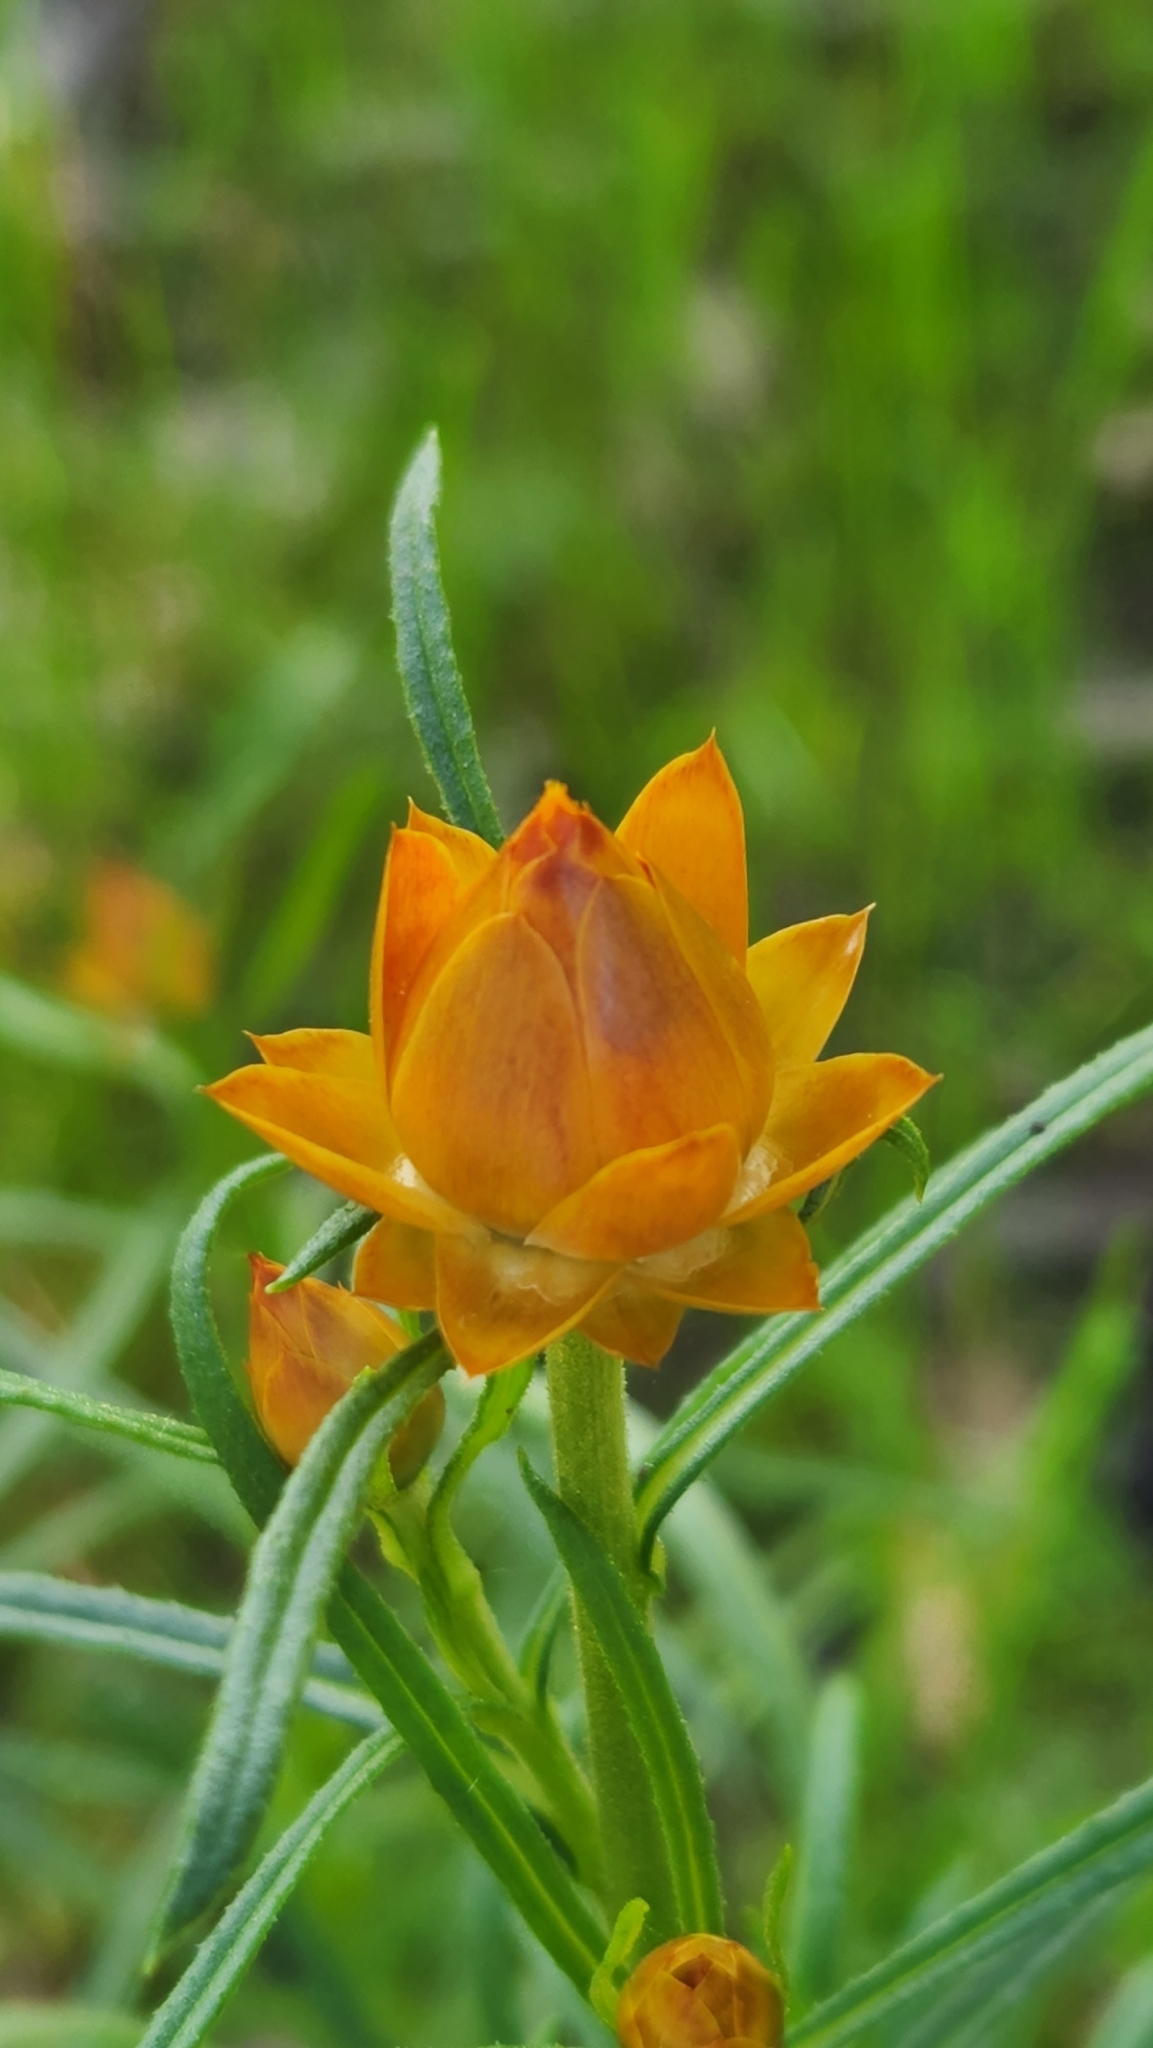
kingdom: Plantae
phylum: Tracheophyta
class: Magnoliopsida
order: Asterales
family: Asteraceae
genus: Xerochrysum
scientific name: Xerochrysum viscosum
